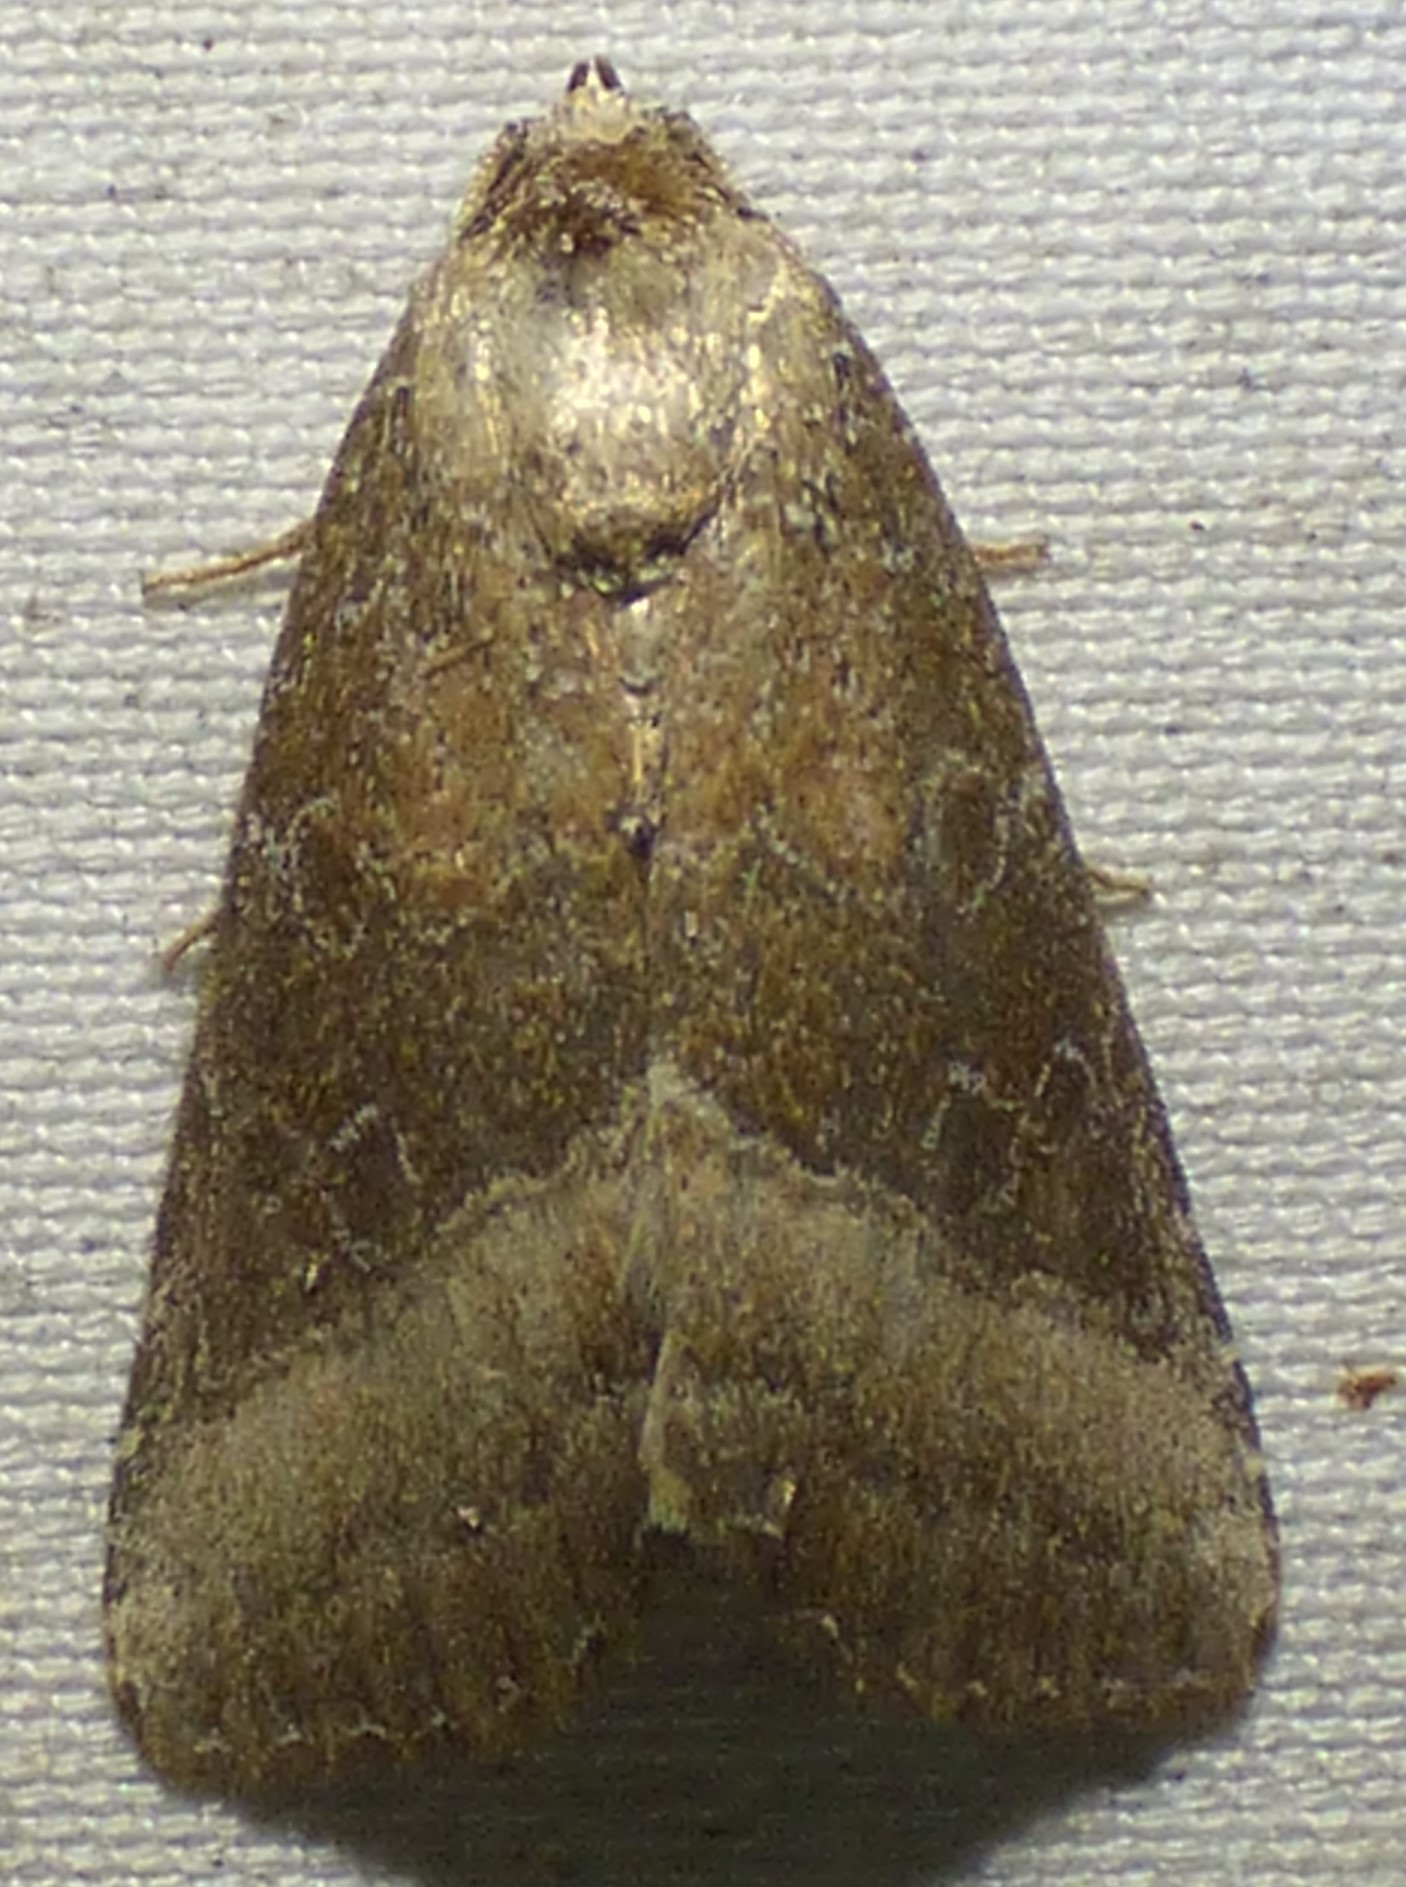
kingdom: Animalia
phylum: Arthropoda
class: Insecta
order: Lepidoptera
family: Noctuidae
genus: Ogdoconta
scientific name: Ogdoconta cinereola
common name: Common pinkband
